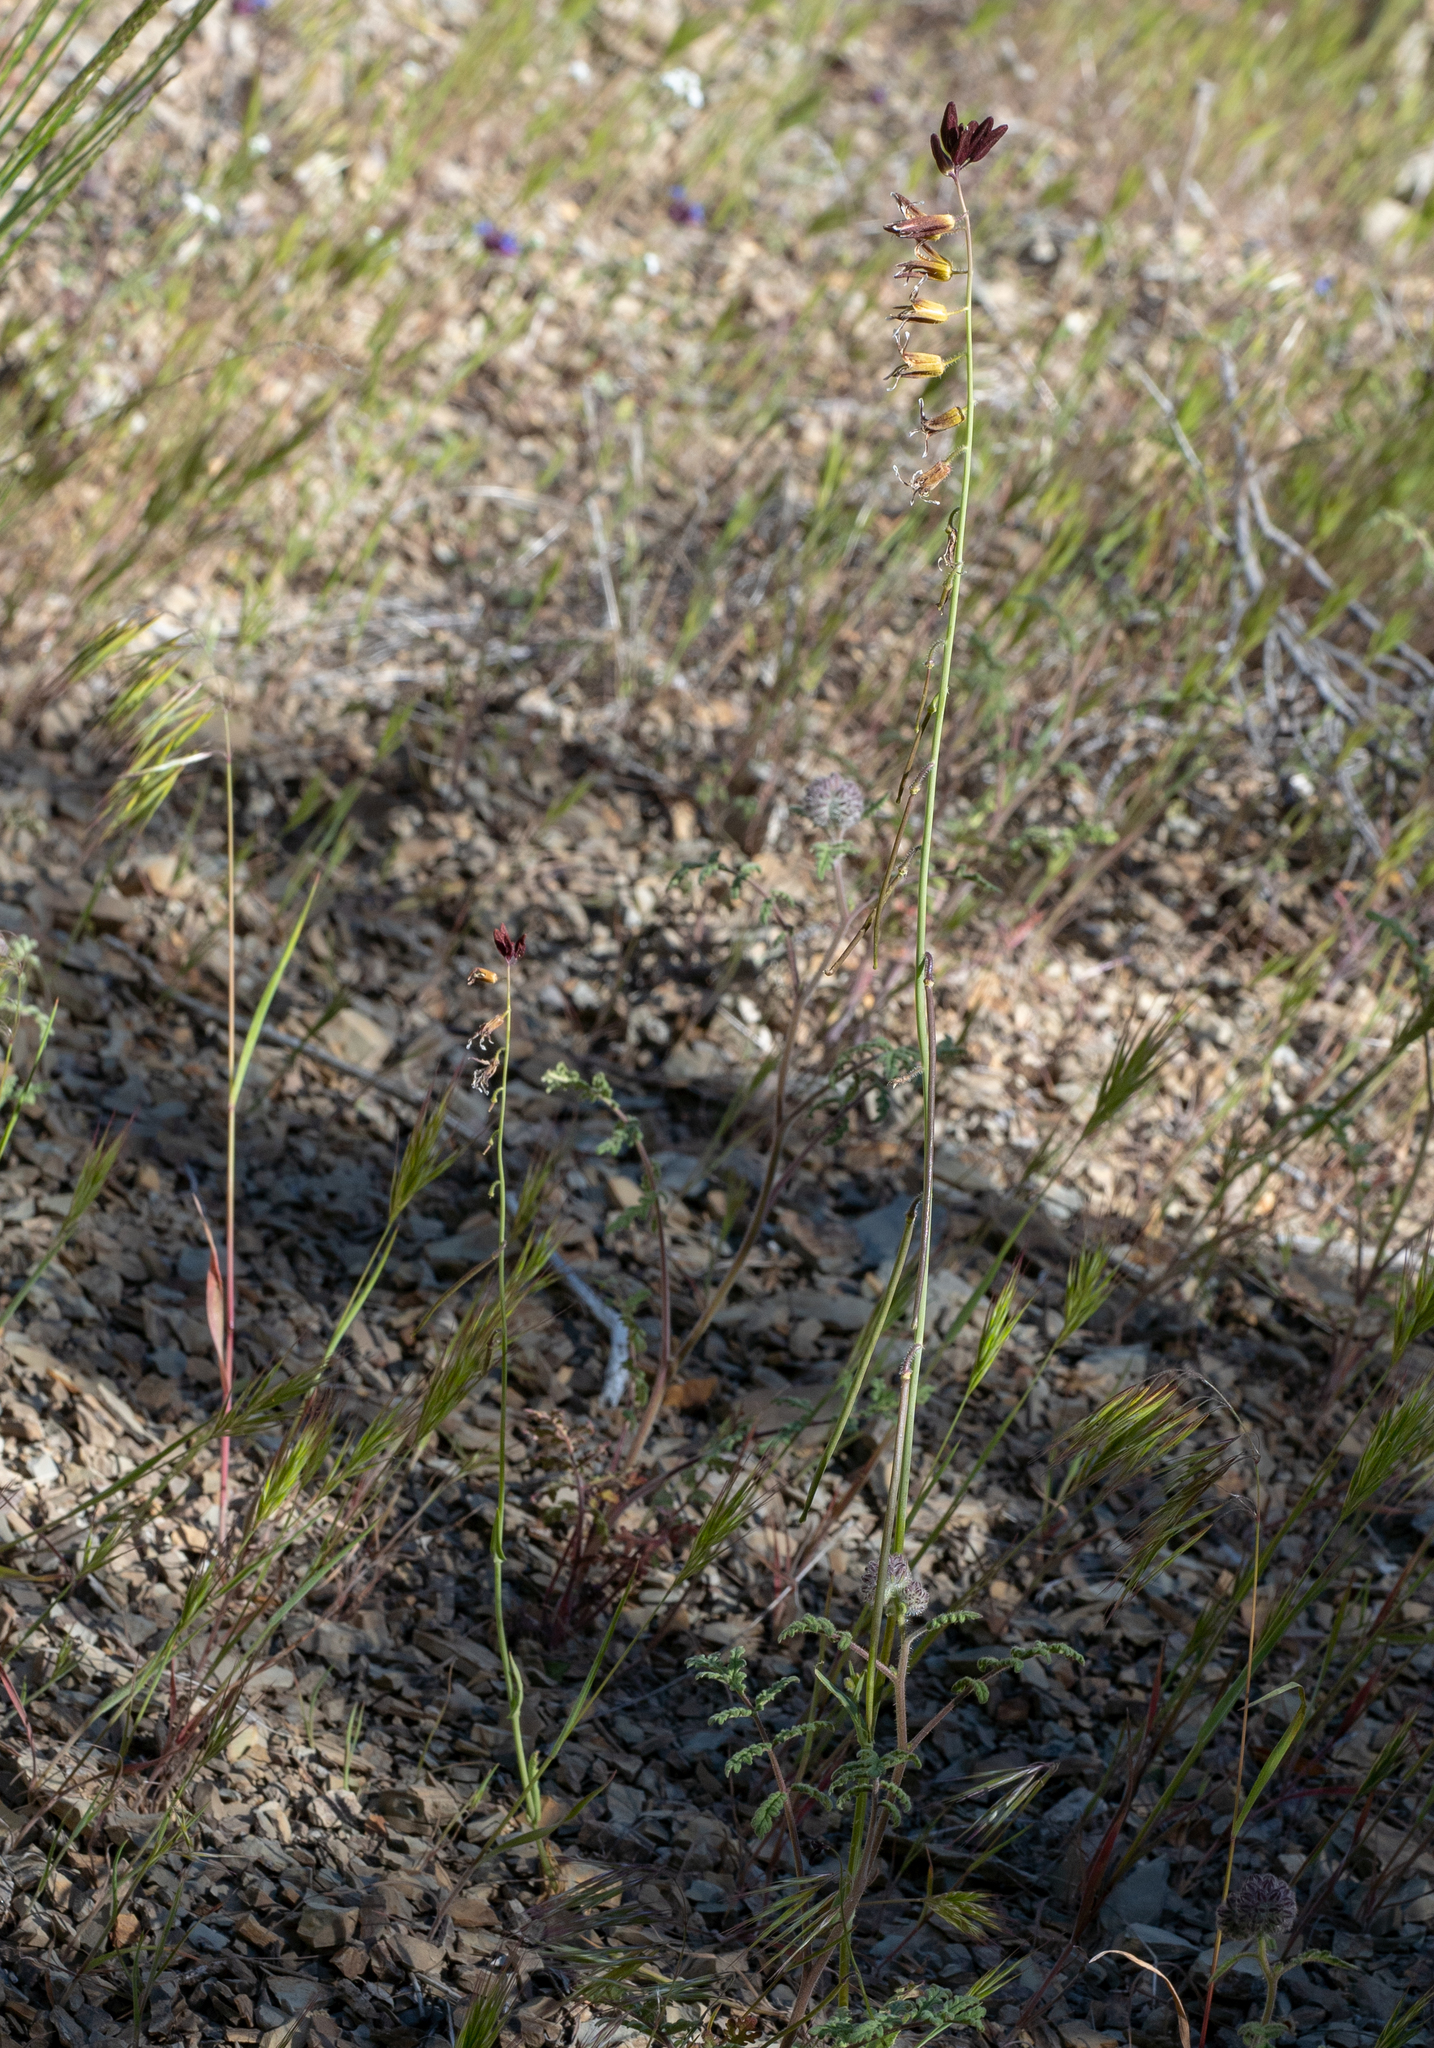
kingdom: Plantae
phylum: Tracheophyta
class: Magnoliopsida
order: Brassicales
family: Brassicaceae
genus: Streptanthus
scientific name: Streptanthus coulteri
